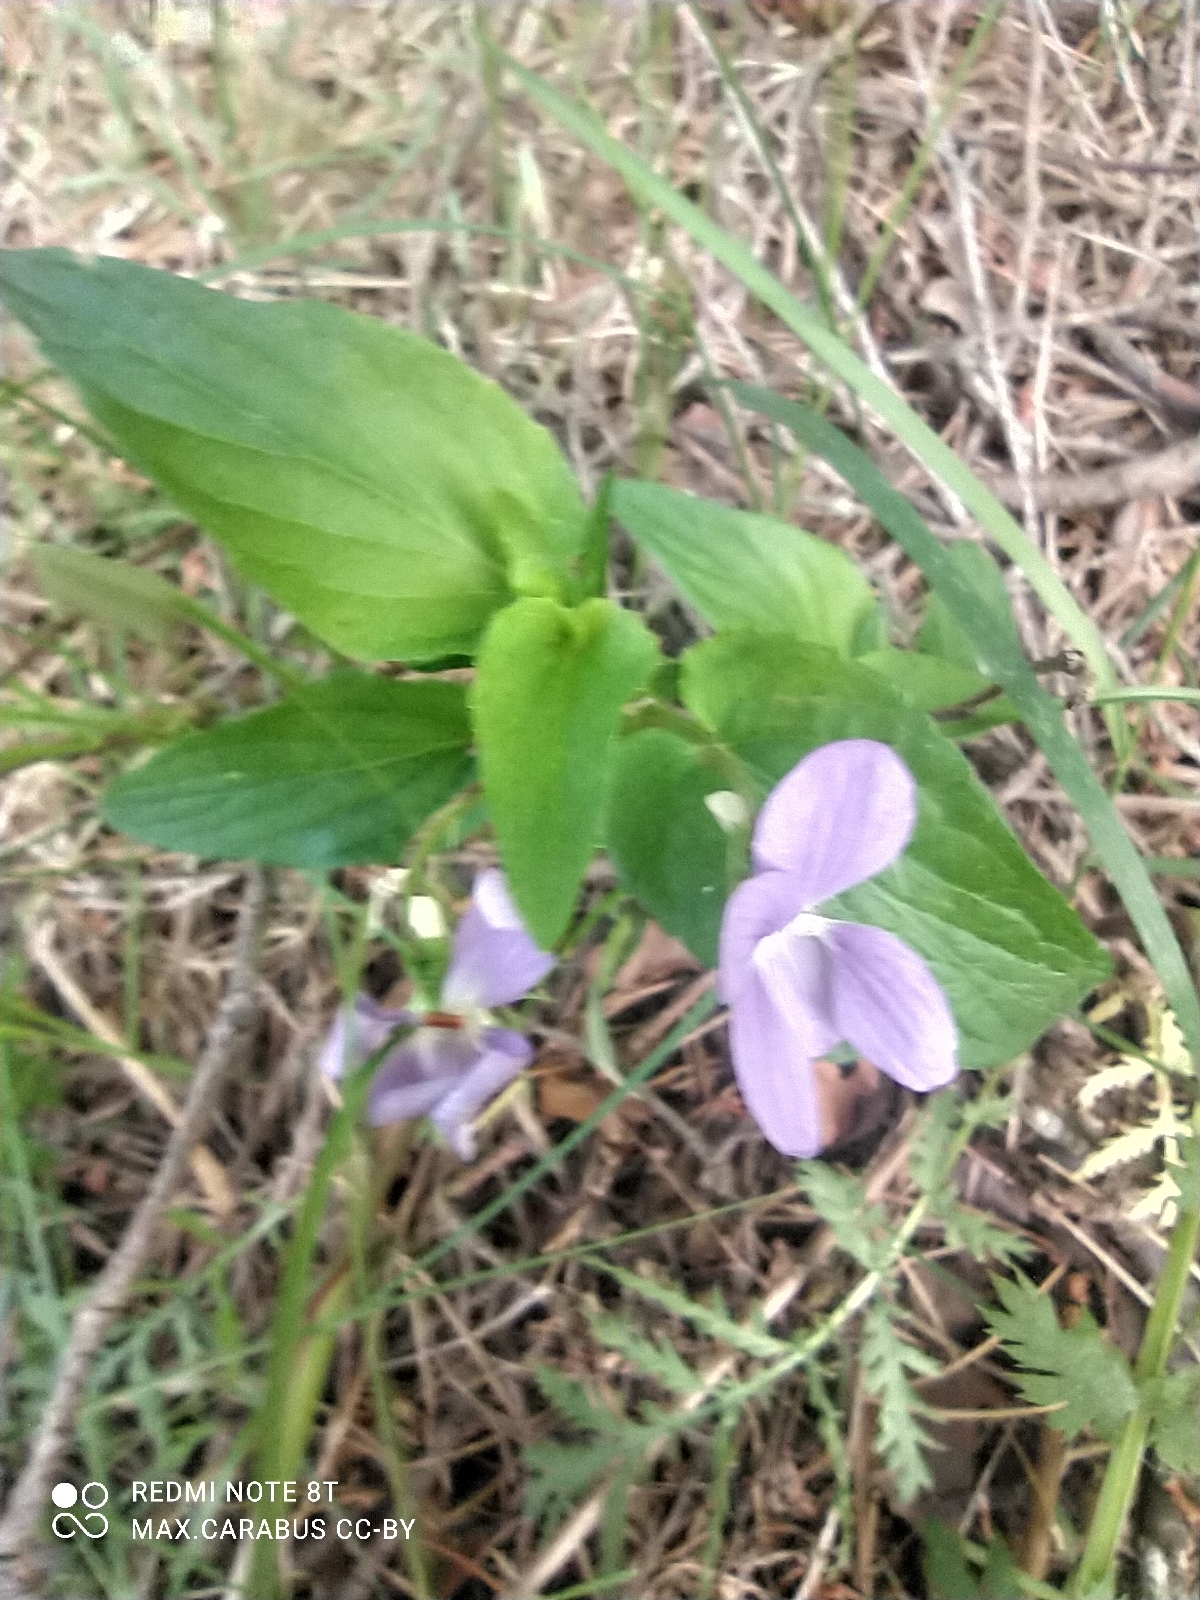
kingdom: Plantae
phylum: Tracheophyta
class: Magnoliopsida
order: Malpighiales
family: Violaceae
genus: Viola
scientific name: Viola
